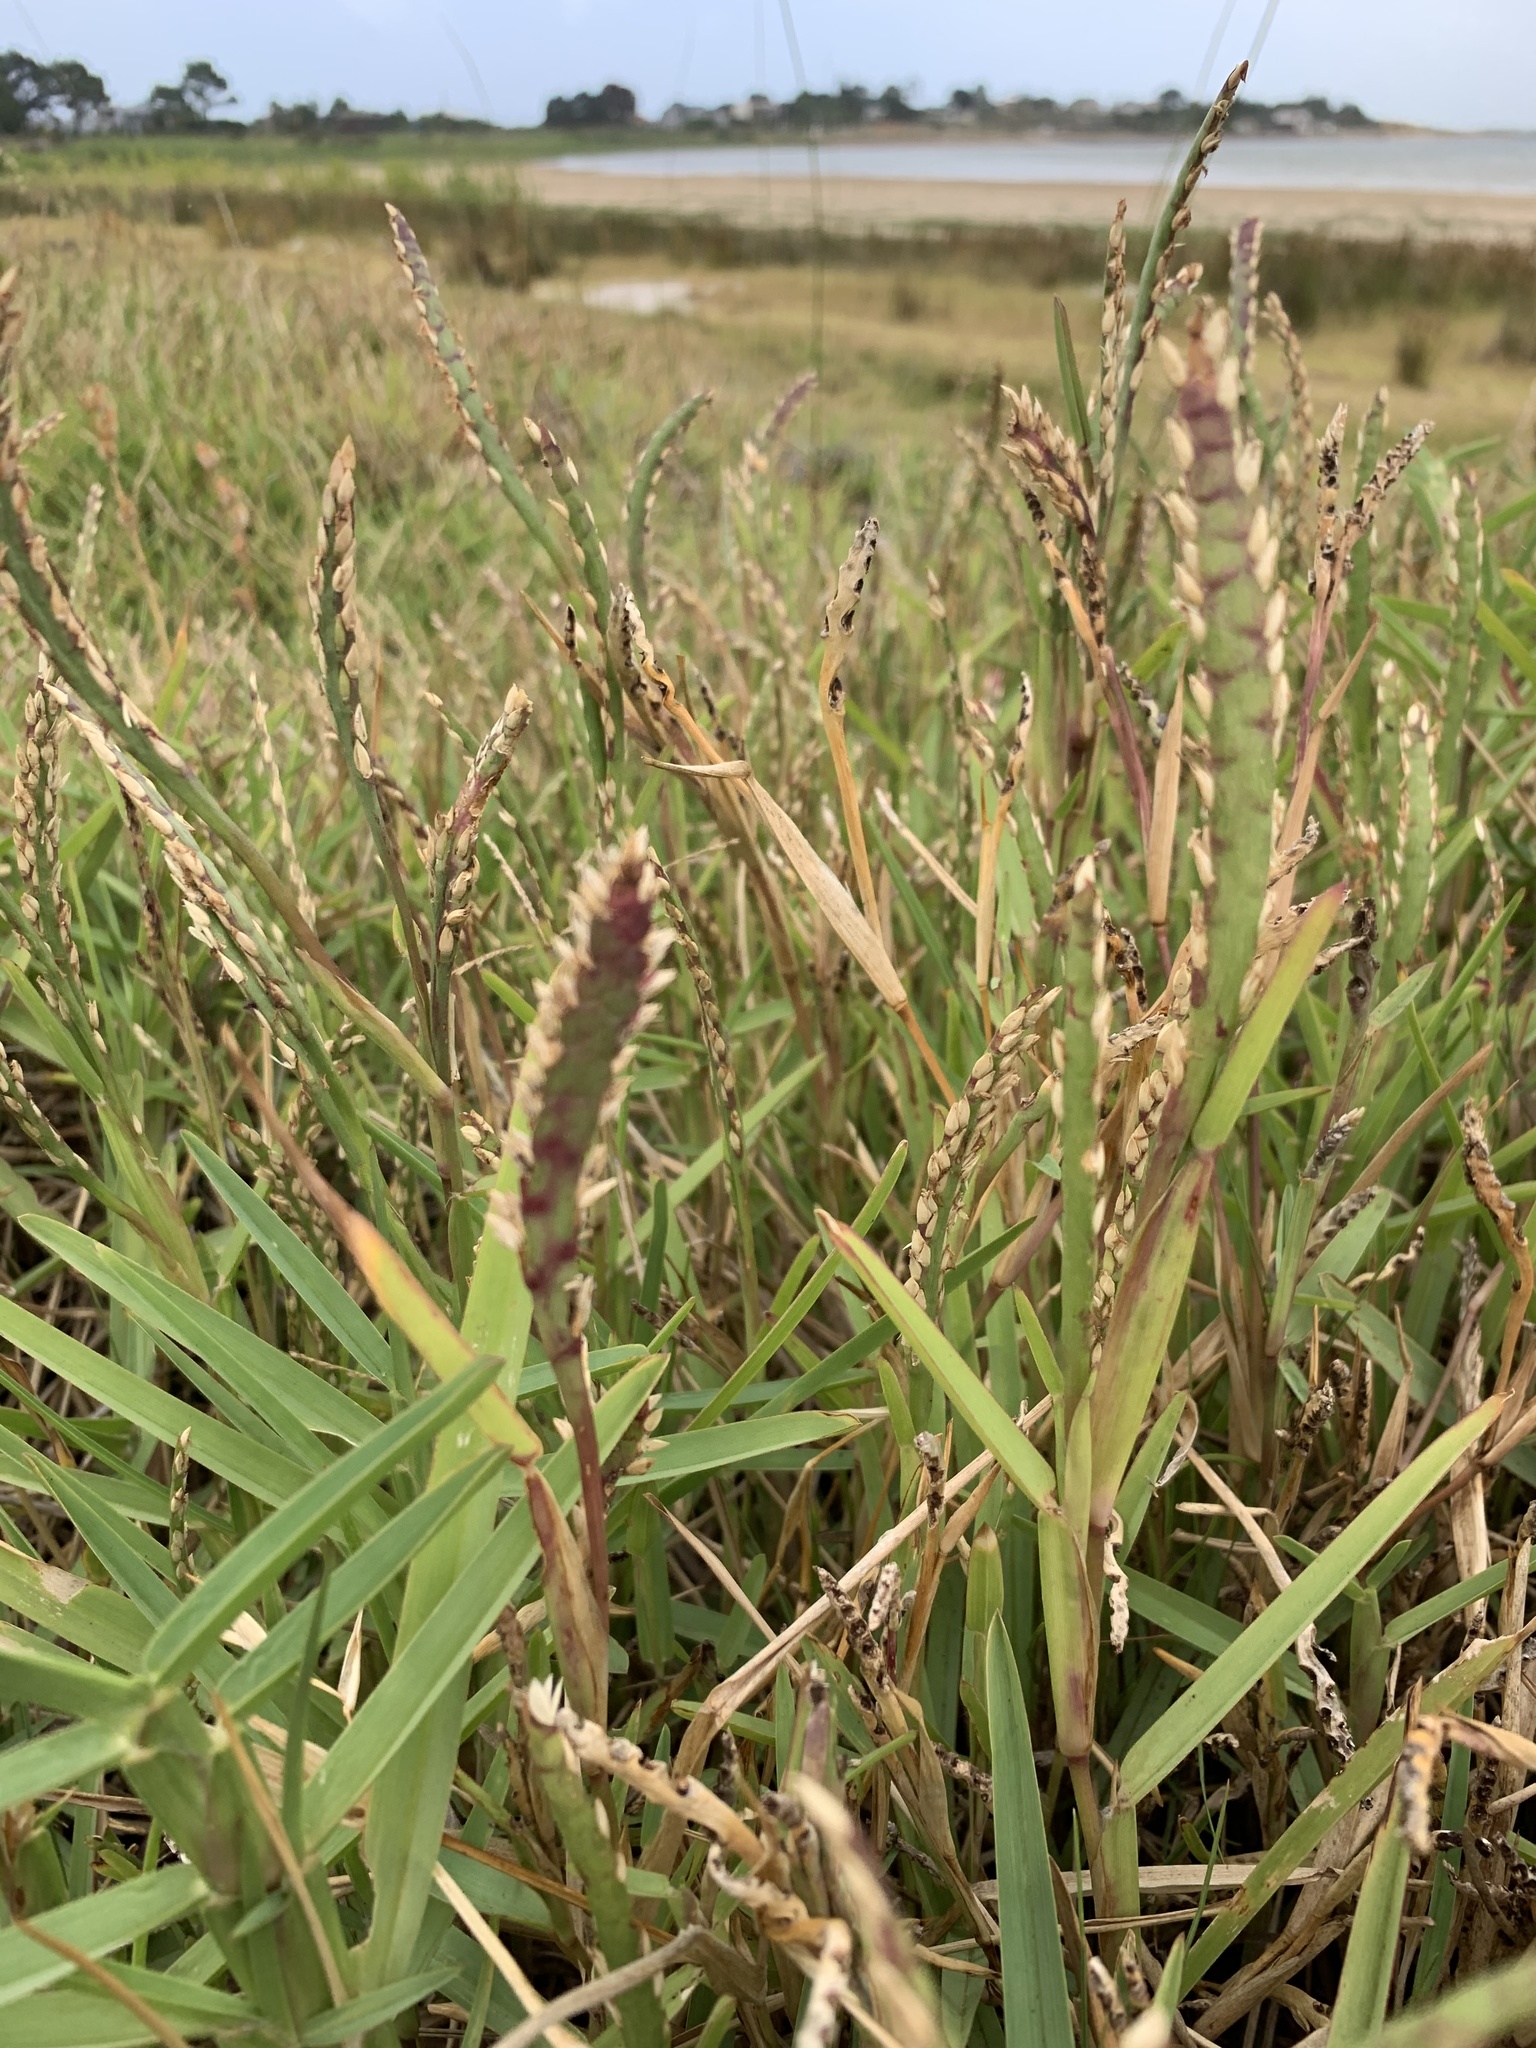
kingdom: Plantae
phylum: Tracheophyta
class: Liliopsida
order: Poales
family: Poaceae
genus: Stenotaphrum
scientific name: Stenotaphrum secundatum
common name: St. augustine grass
